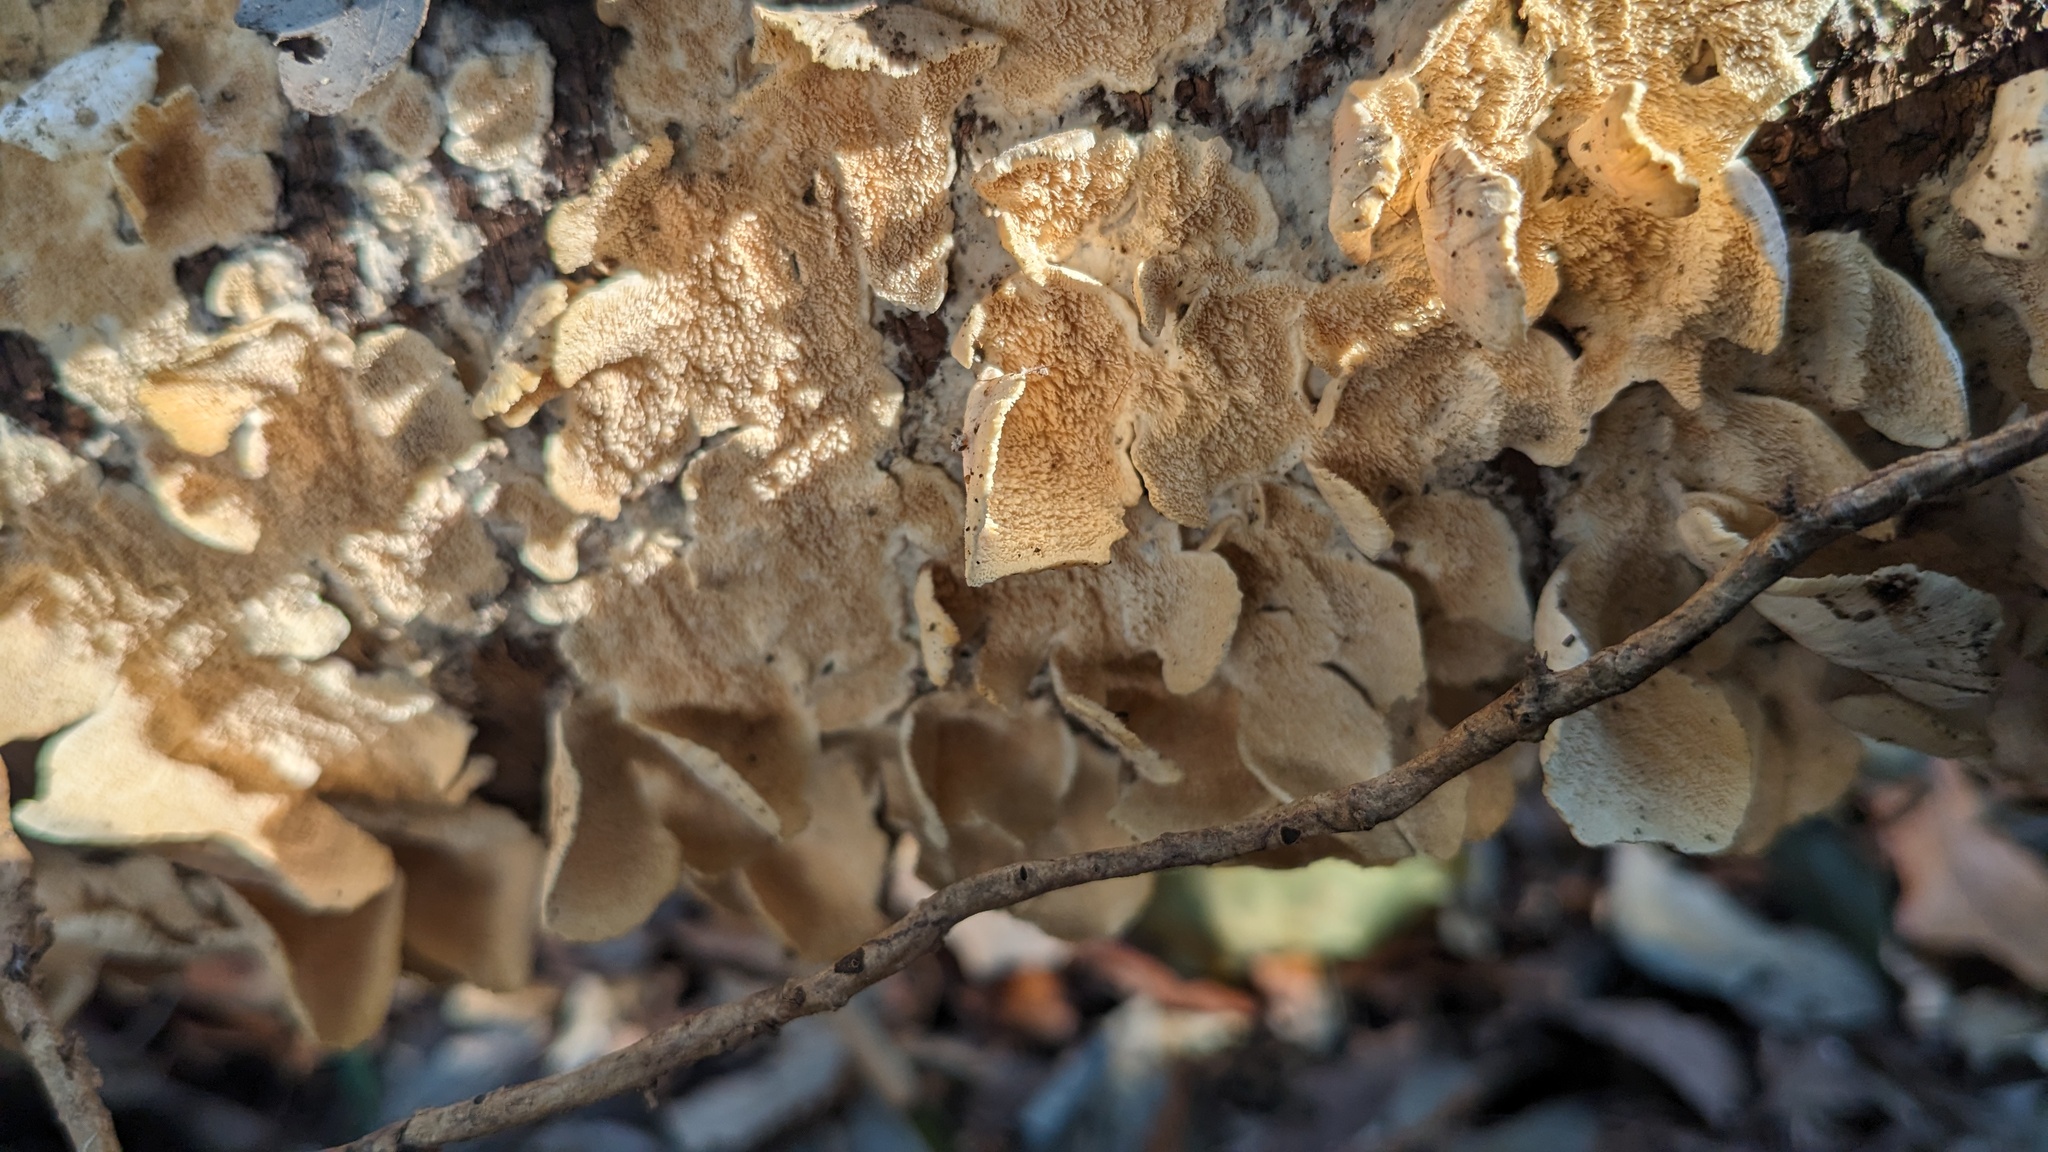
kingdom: Fungi
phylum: Basidiomycota
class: Agaricomycetes
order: Hymenochaetales
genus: Trichaptum
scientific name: Trichaptum biforme
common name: Violet-toothed polypore
